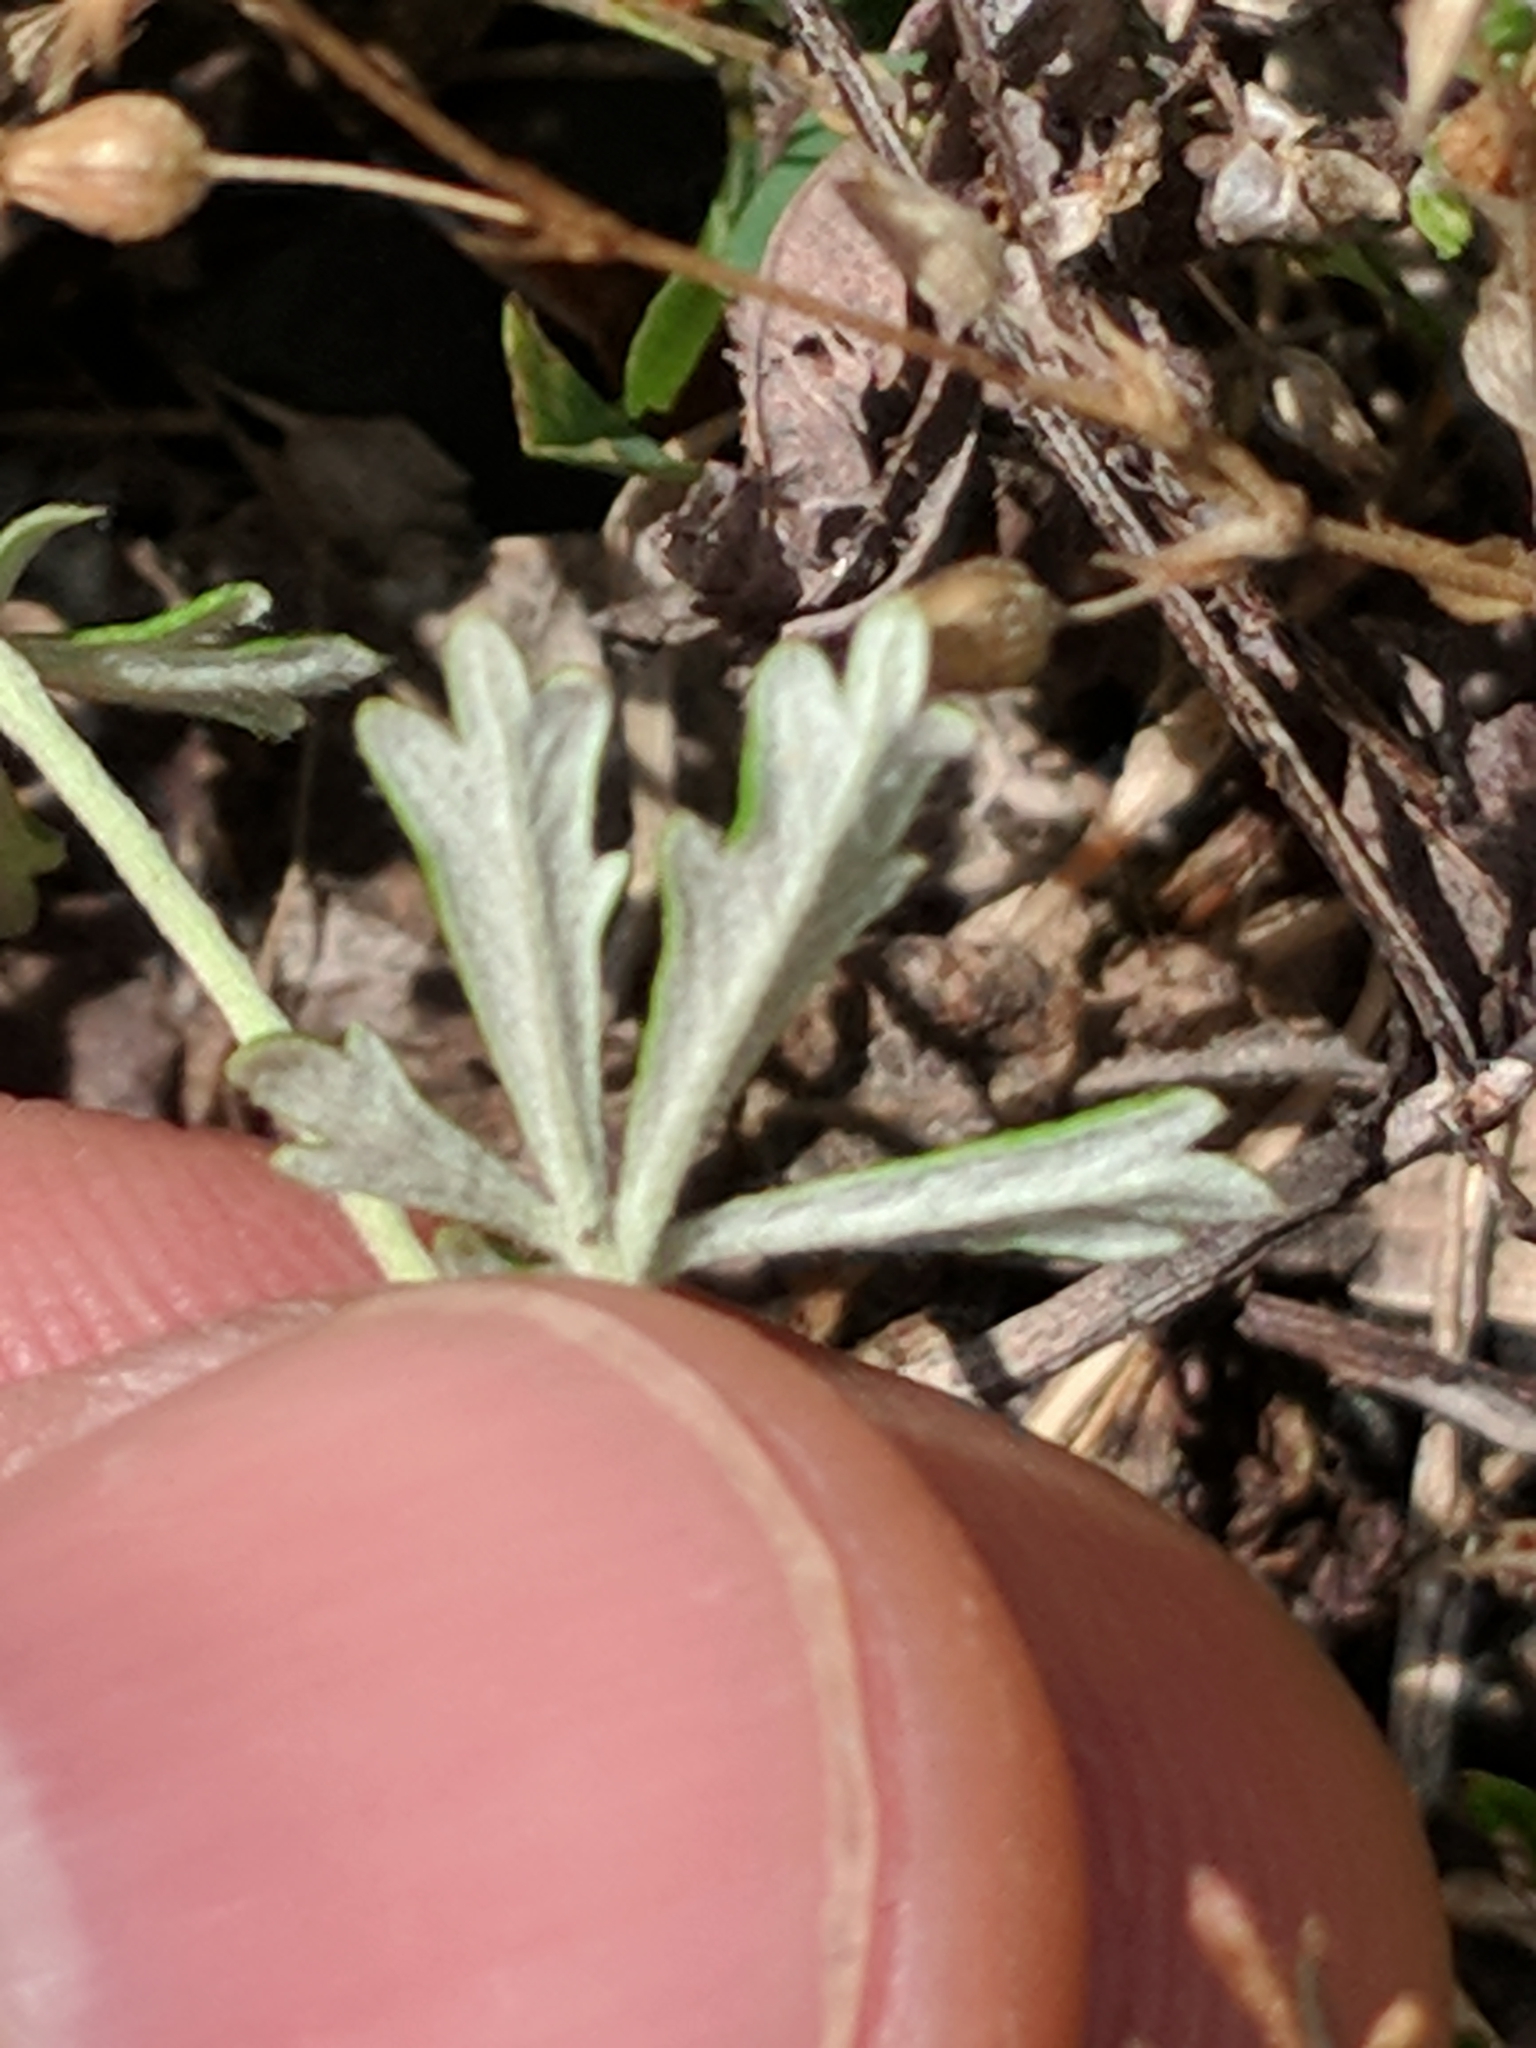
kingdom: Plantae
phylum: Tracheophyta
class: Magnoliopsida
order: Rosales
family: Rosaceae
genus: Potentilla
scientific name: Potentilla argentea
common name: Hoary cinquefoil
